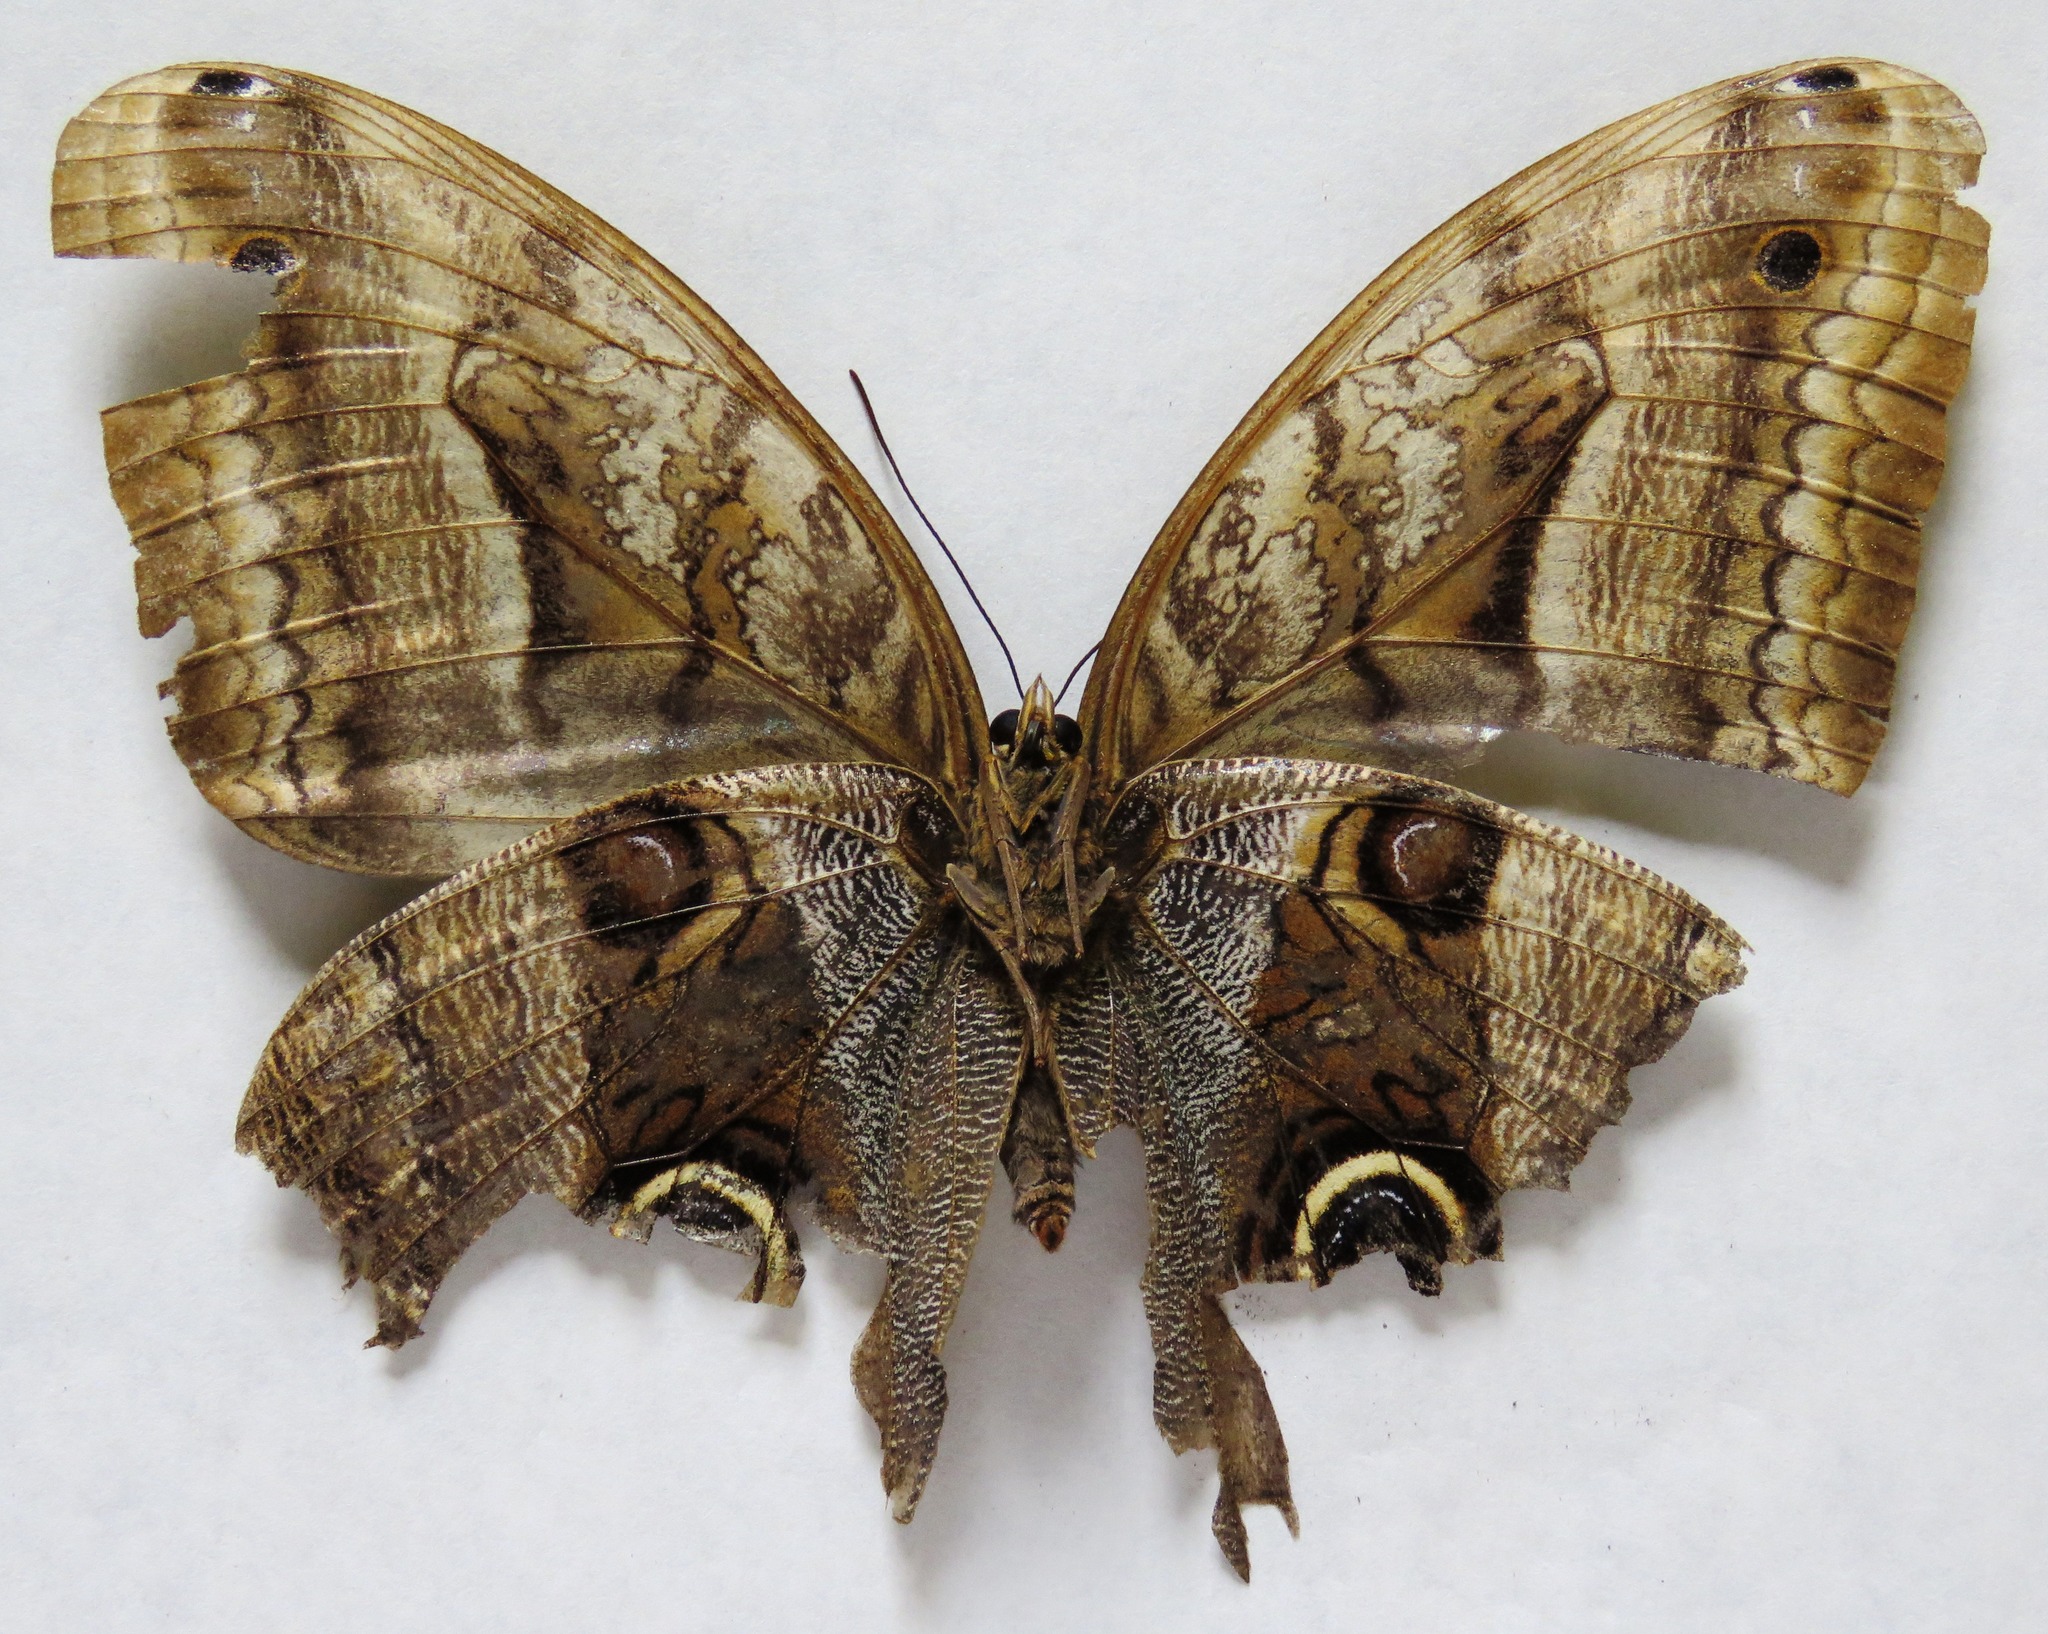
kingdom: Animalia
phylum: Arthropoda
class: Insecta
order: Lepidoptera
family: Nymphalidae
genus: Caligo
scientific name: Caligo oedipus
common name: Fruhstorfer's owl-butterfly
